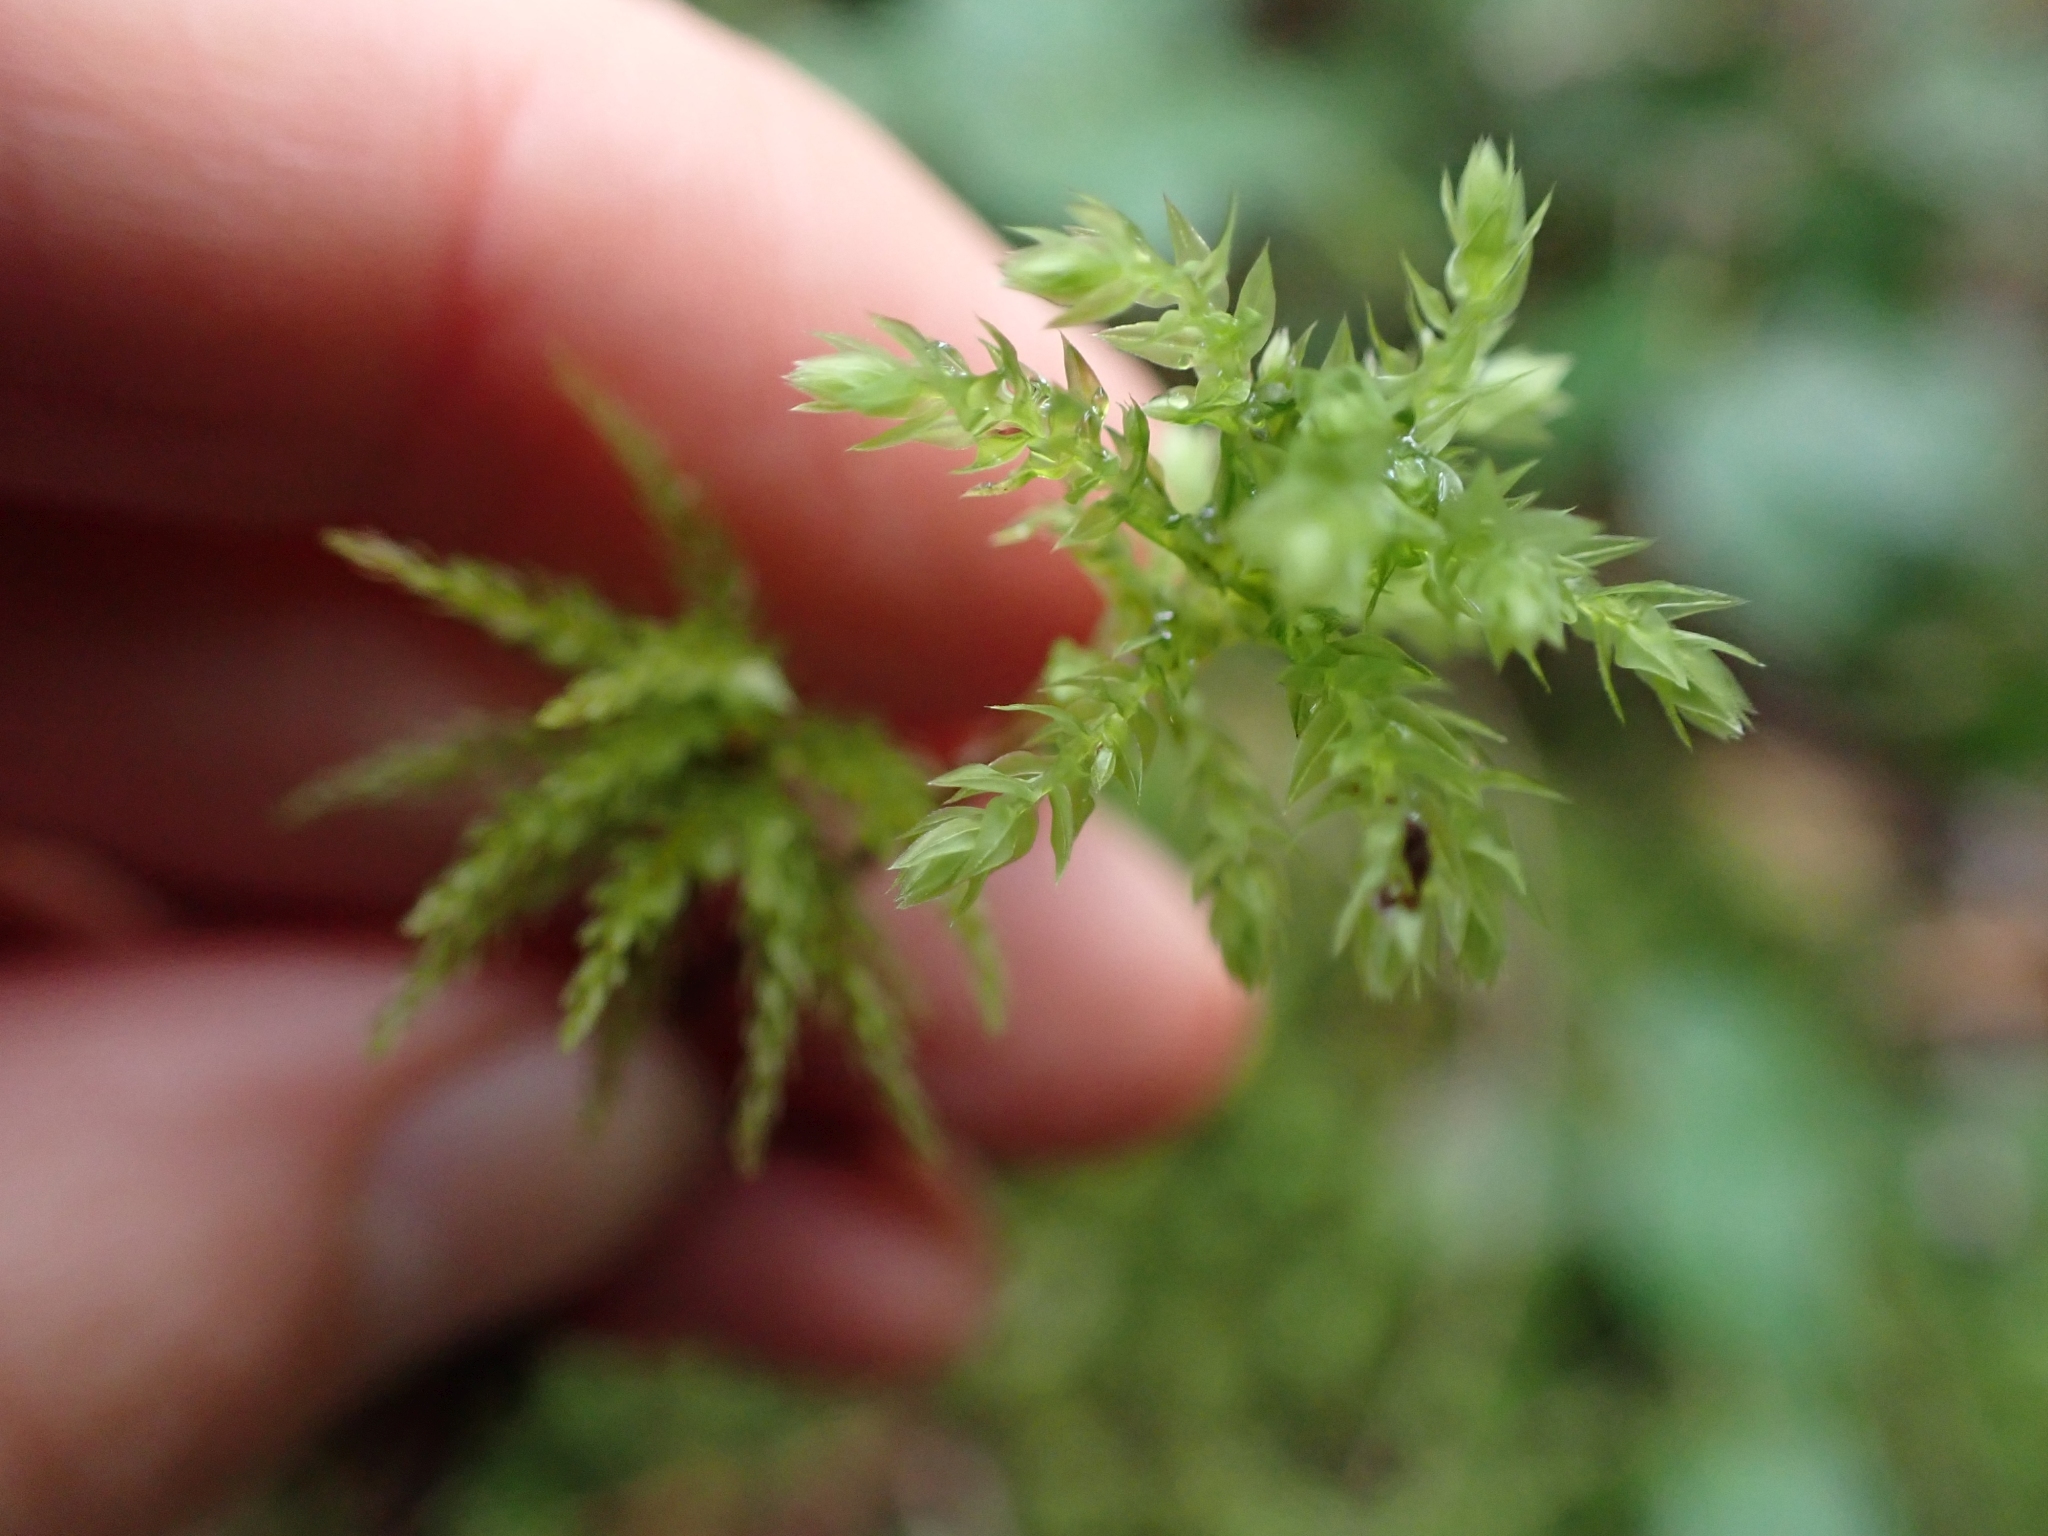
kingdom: Plantae
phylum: Bryophyta
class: Bryopsida
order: Bryales
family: Mniaceae
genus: Leucolepis
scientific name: Leucolepis acanthoneura
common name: Leucolepis umbrella moss
